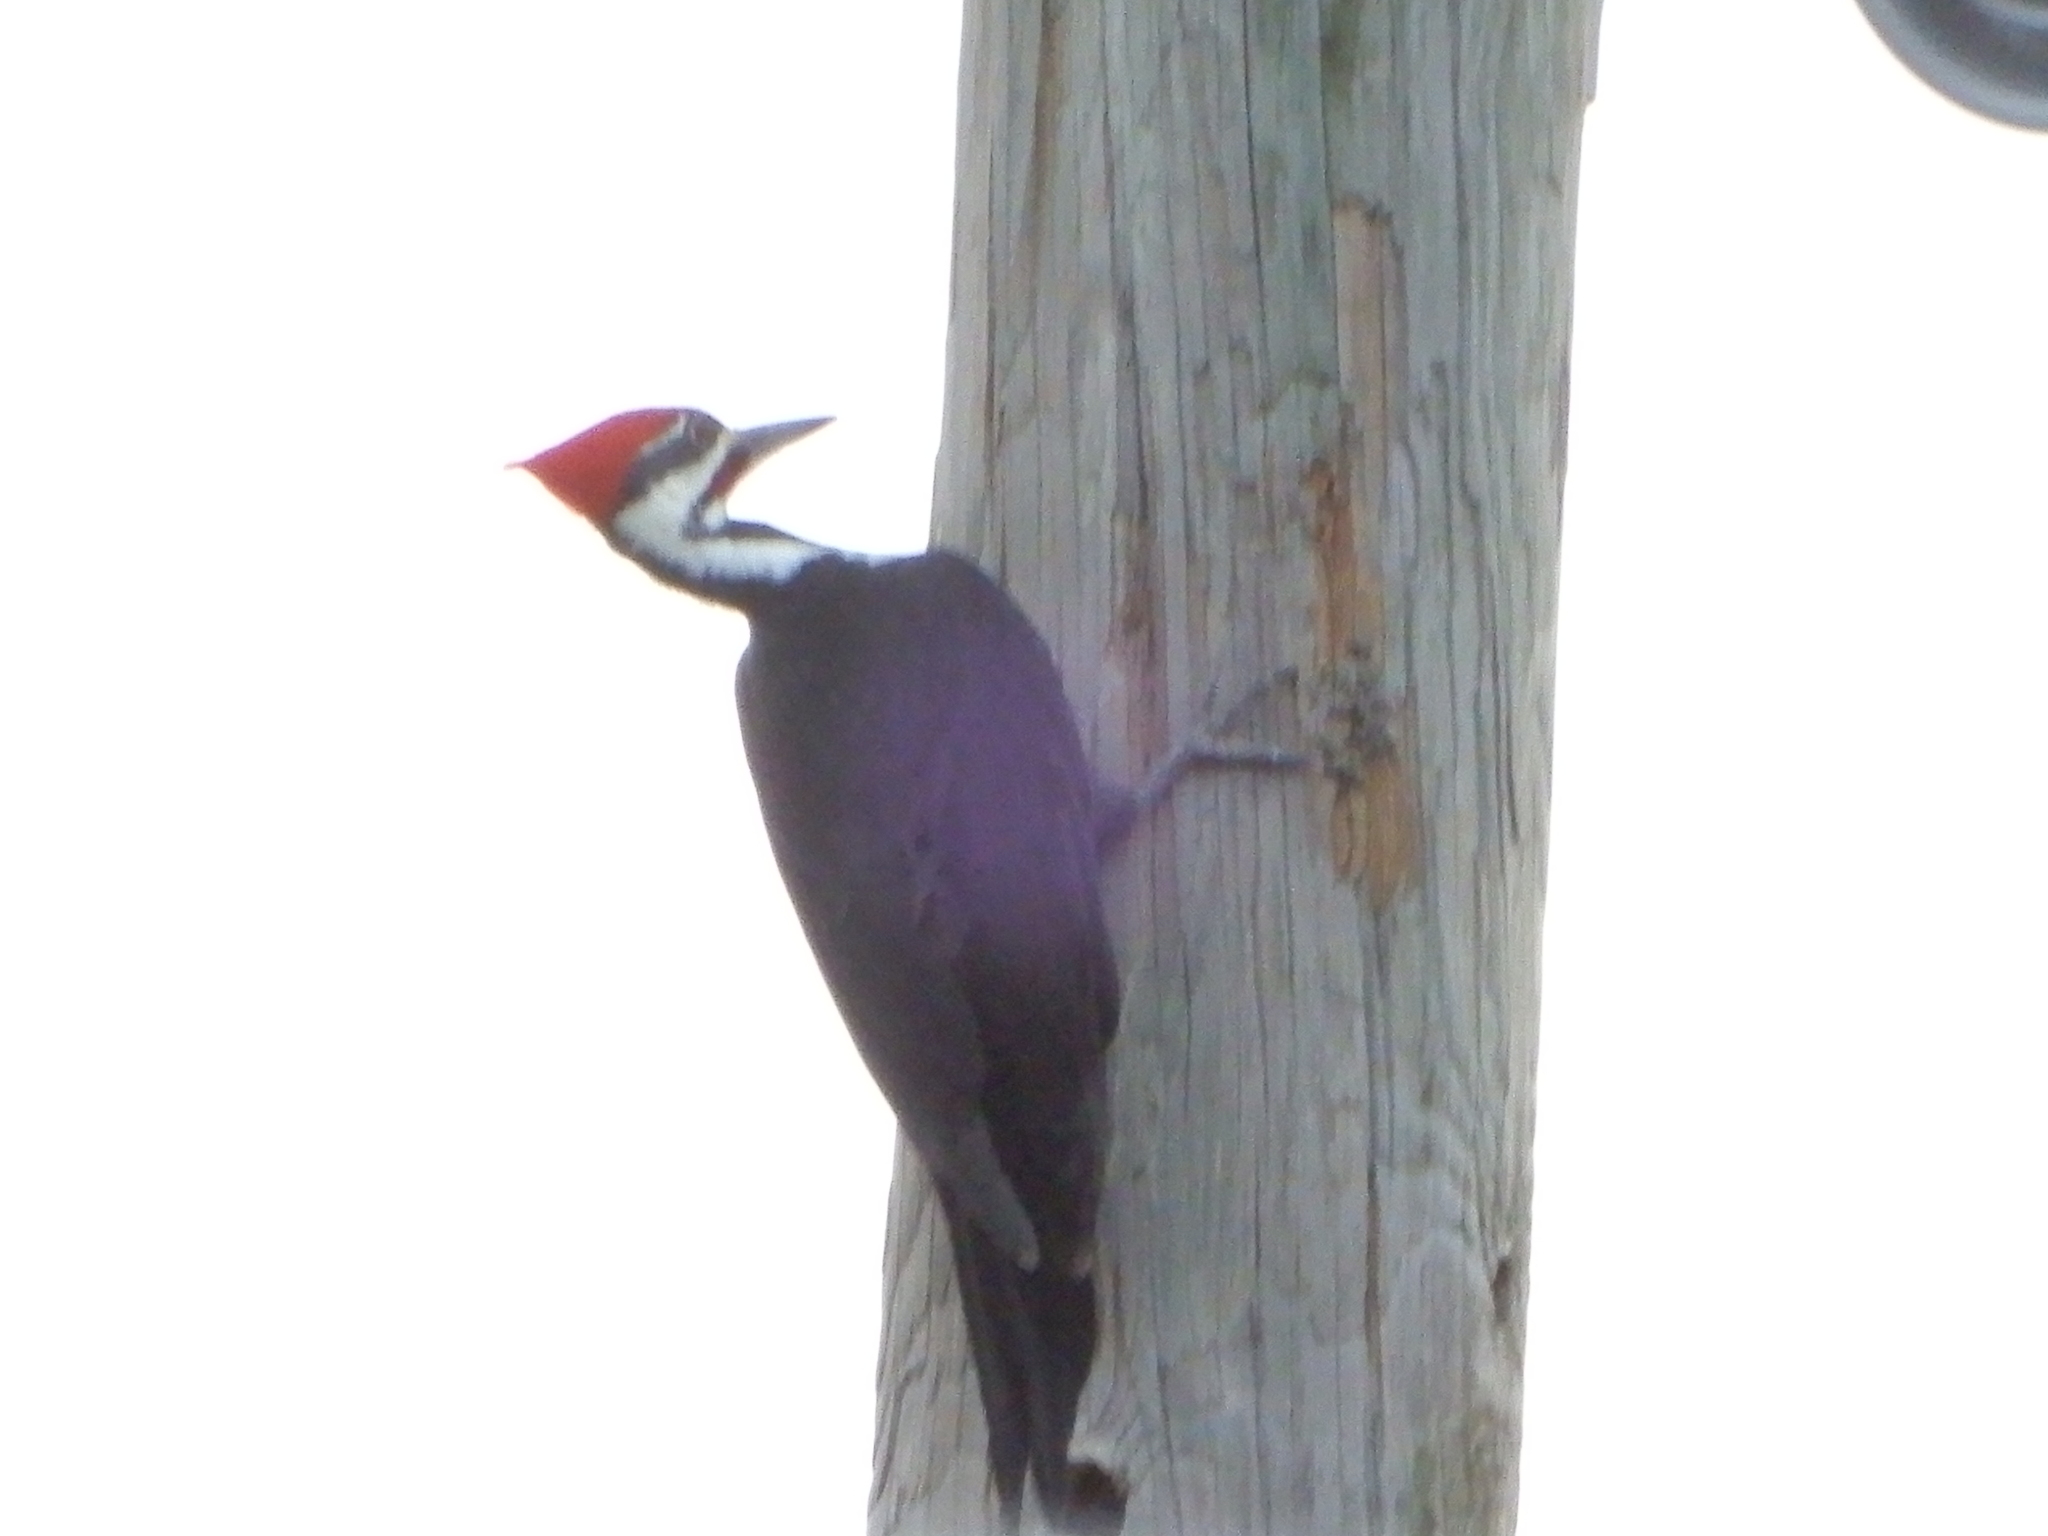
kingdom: Animalia
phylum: Chordata
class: Aves
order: Piciformes
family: Picidae
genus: Dryocopus
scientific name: Dryocopus pileatus
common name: Pileated woodpecker
